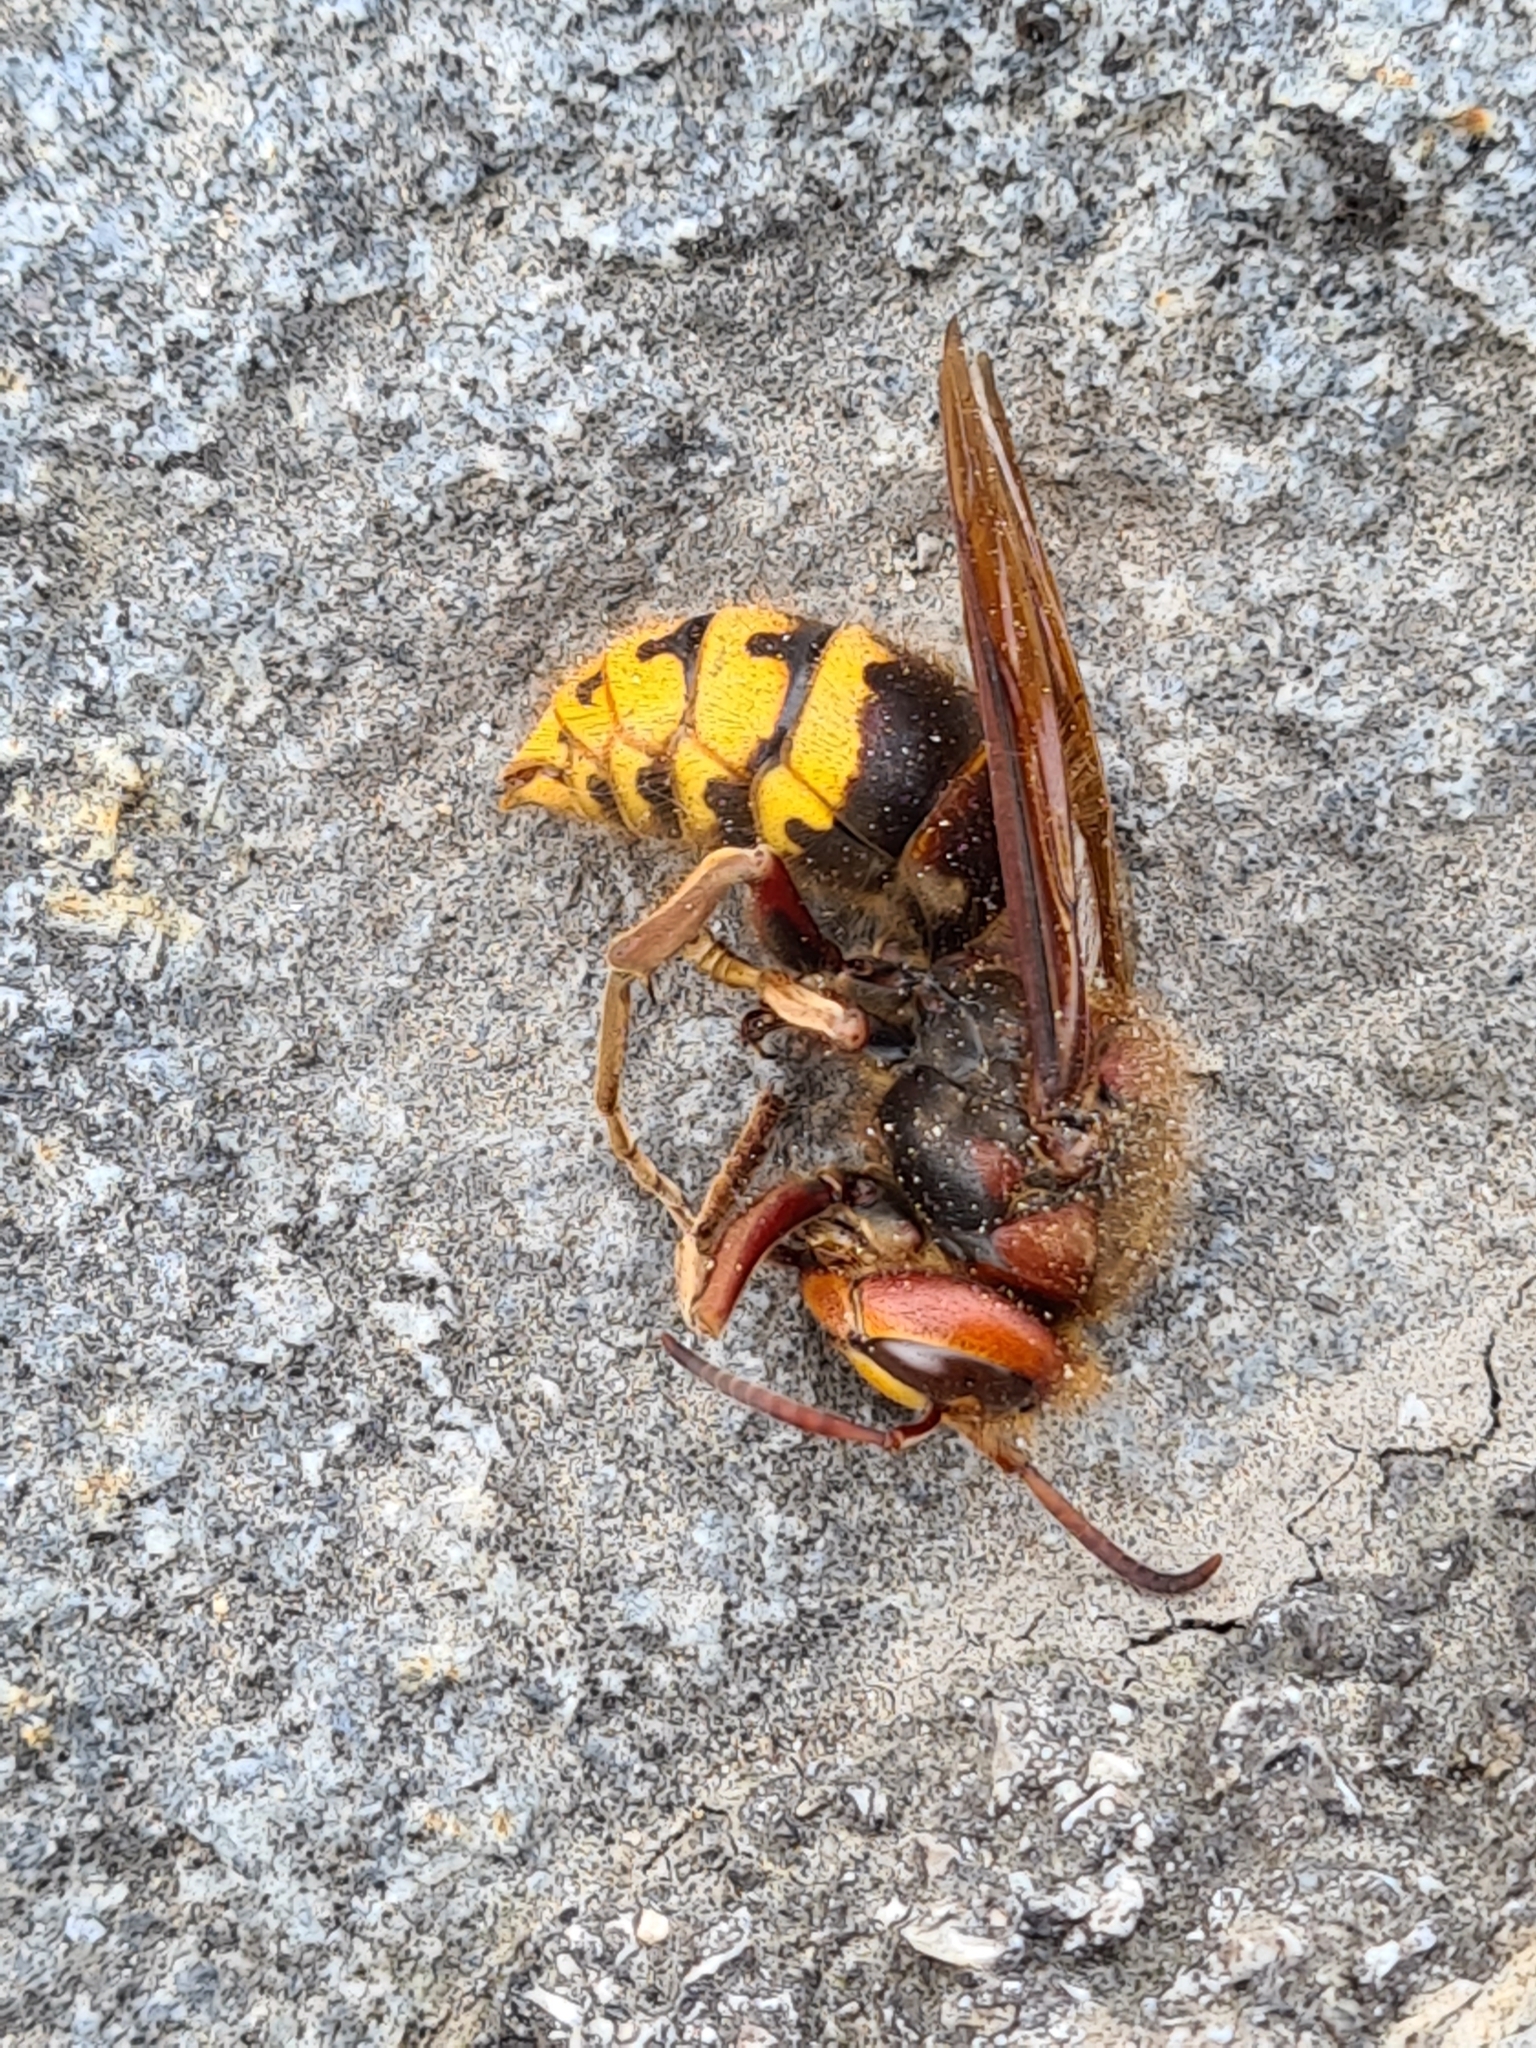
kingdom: Animalia
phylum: Arthropoda
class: Insecta
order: Hymenoptera
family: Vespidae
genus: Vespa
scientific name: Vespa crabro
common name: Hornet
